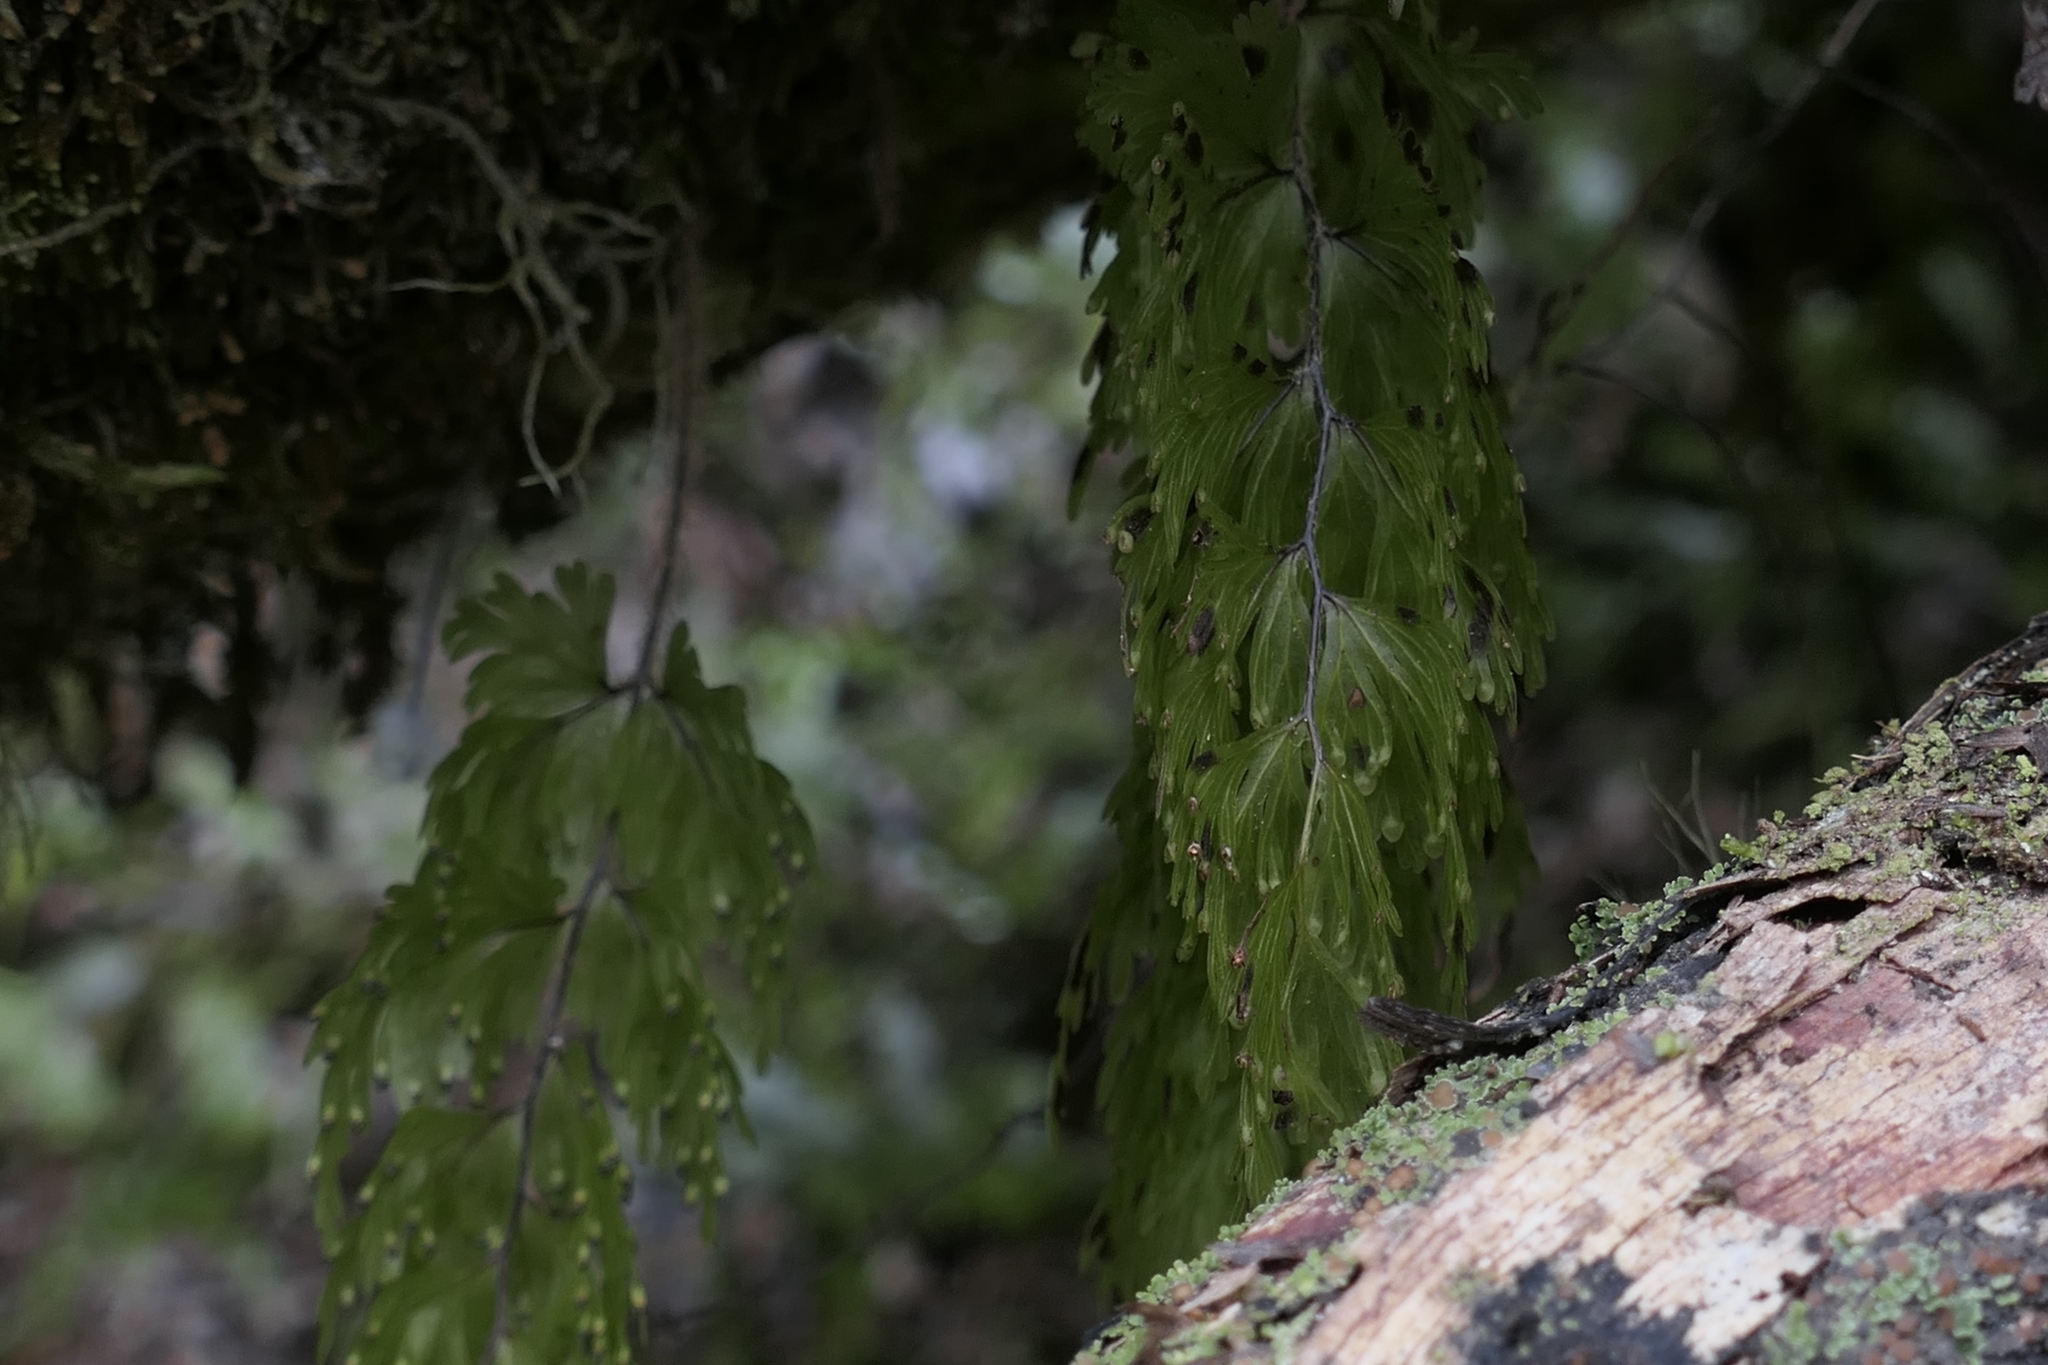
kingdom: Plantae
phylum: Tracheophyta
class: Polypodiopsida
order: Hymenophyllales
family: Hymenophyllaceae
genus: Hymenophyllum
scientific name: Hymenophyllum flabellatum
